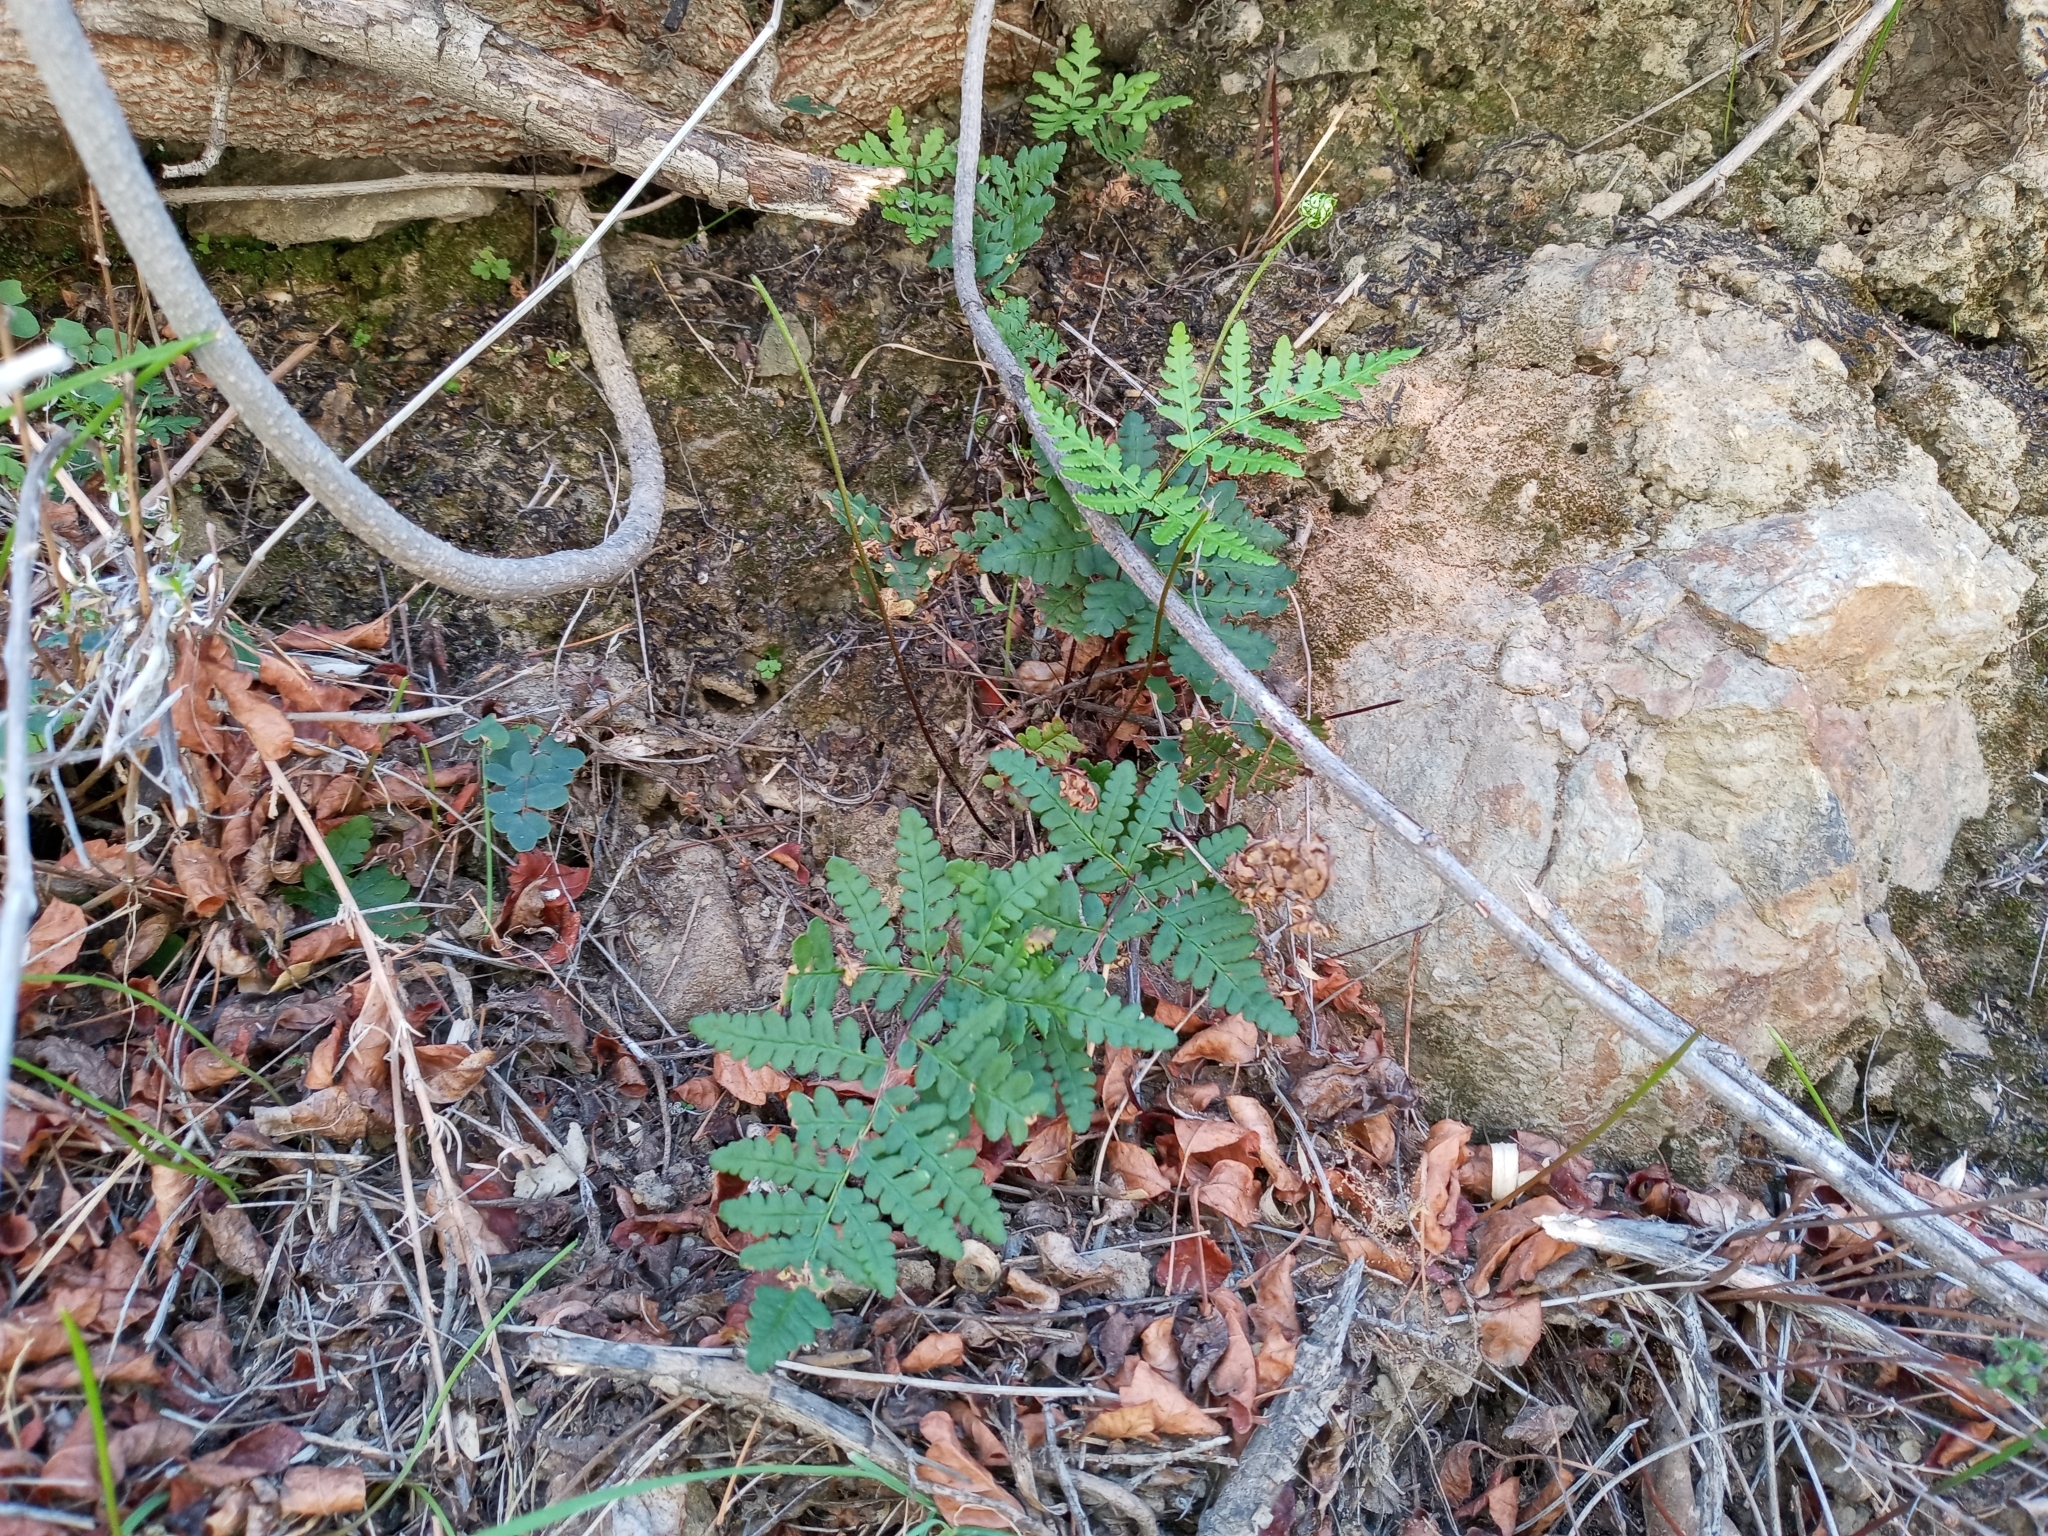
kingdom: Plantae
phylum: Tracheophyta
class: Polypodiopsida
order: Polypodiales
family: Pteridaceae
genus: Pentagramma
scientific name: Pentagramma triangularis
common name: Gold fern
